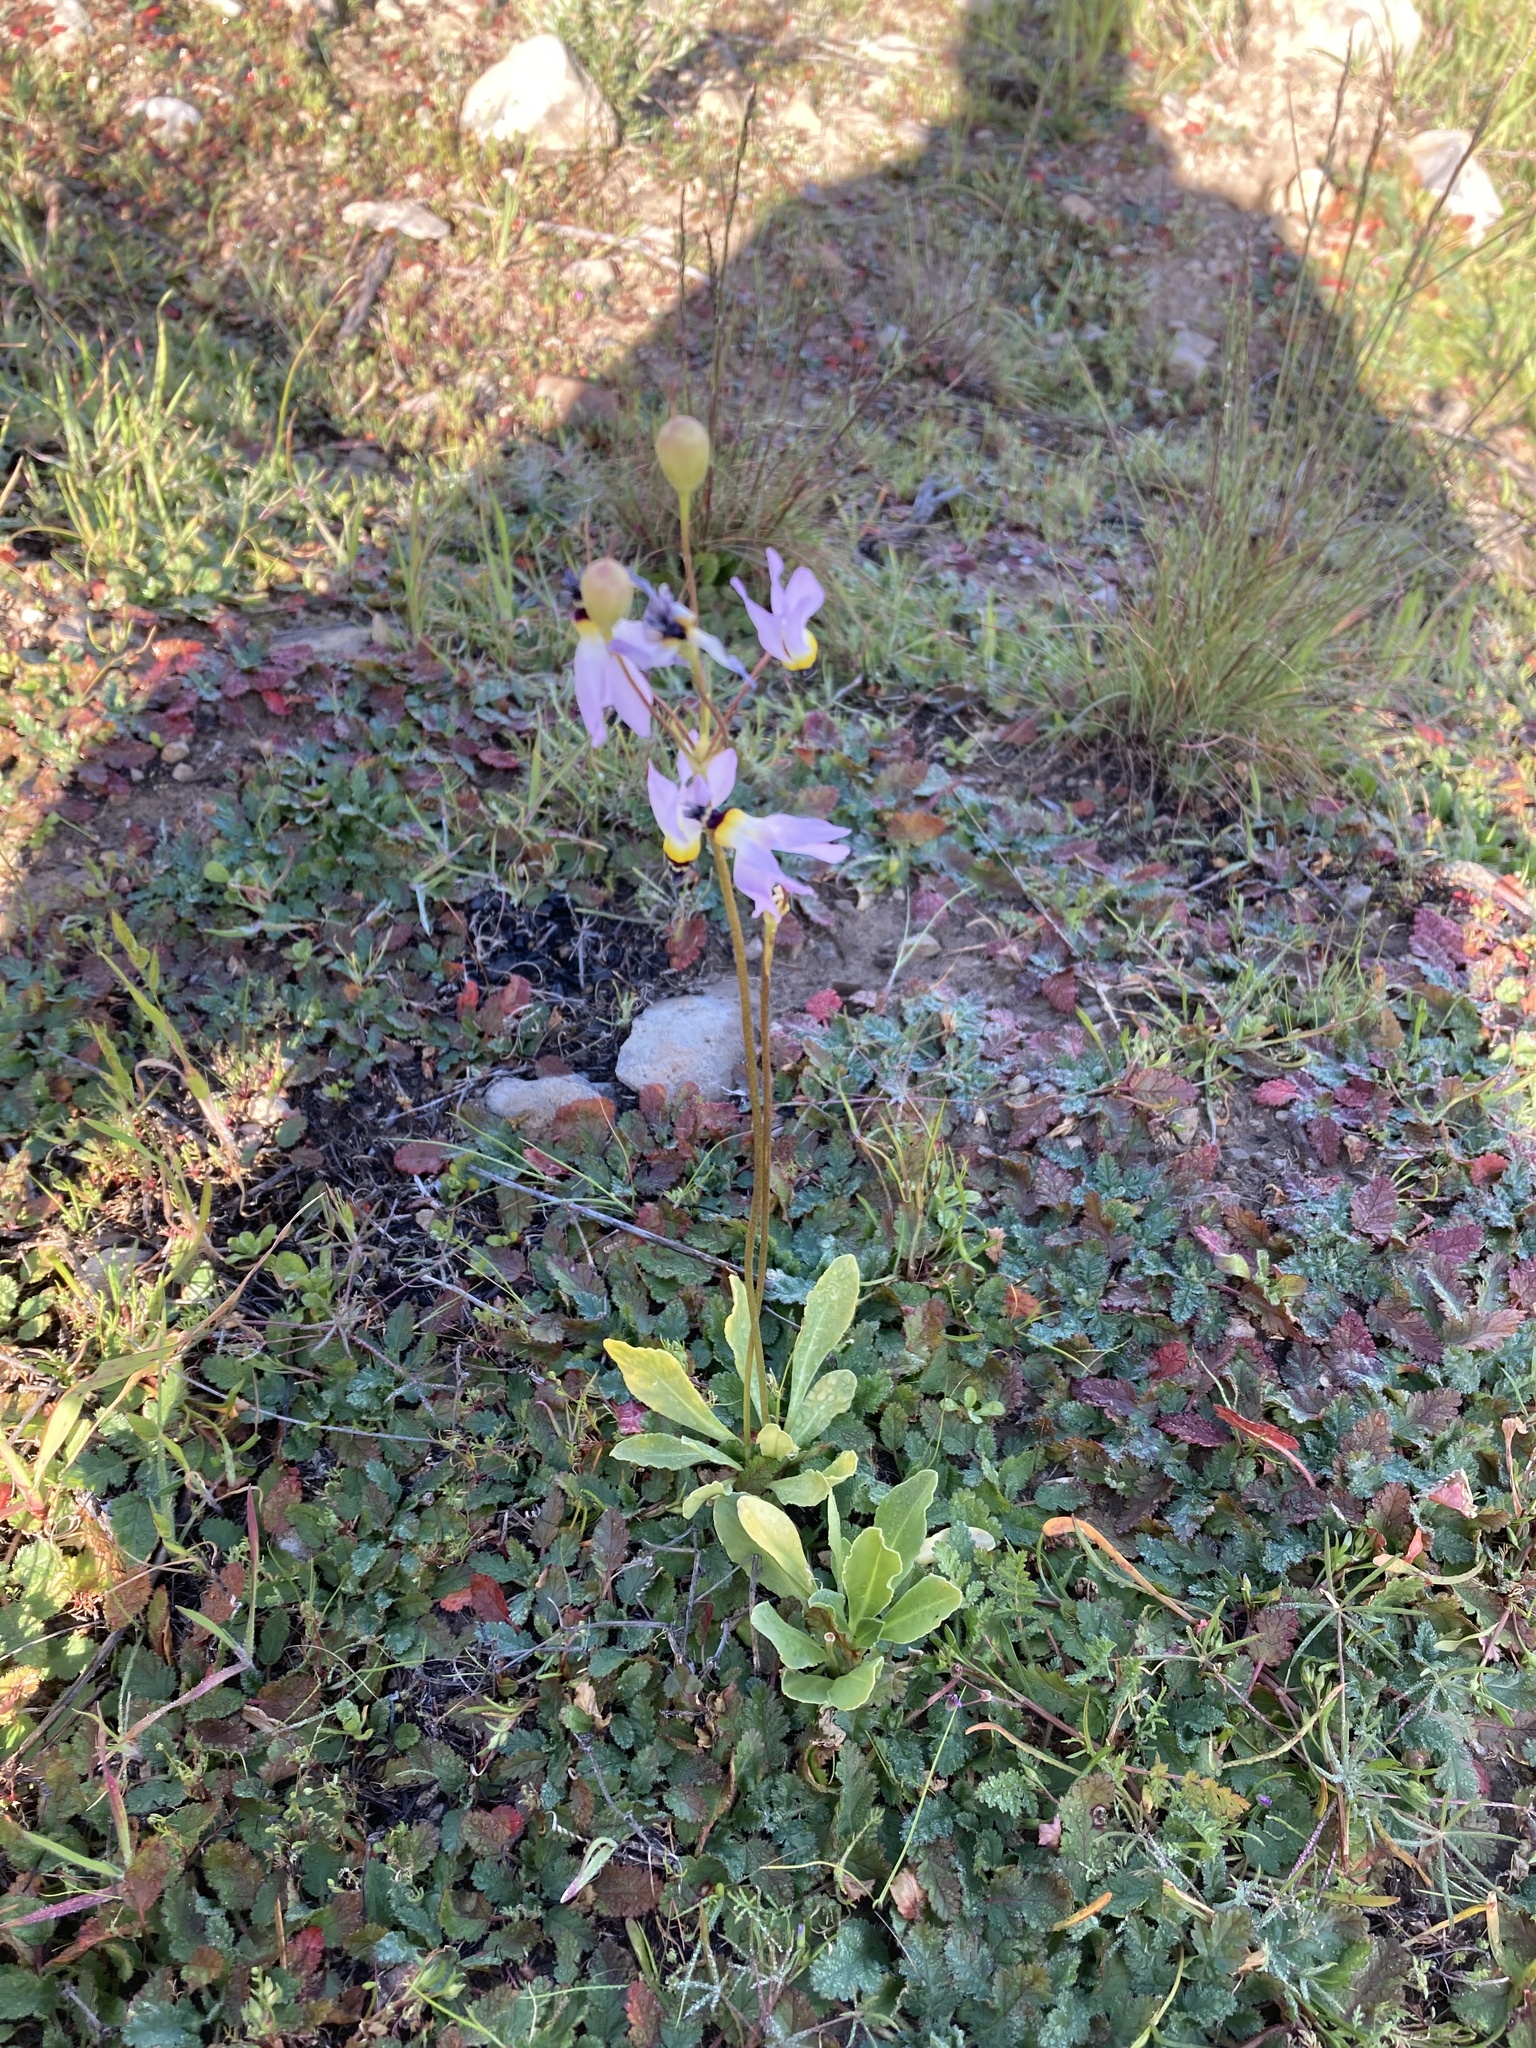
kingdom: Plantae
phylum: Tracheophyta
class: Magnoliopsida
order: Ericales
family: Primulaceae
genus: Dodecatheon
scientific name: Dodecatheon clevelandii
